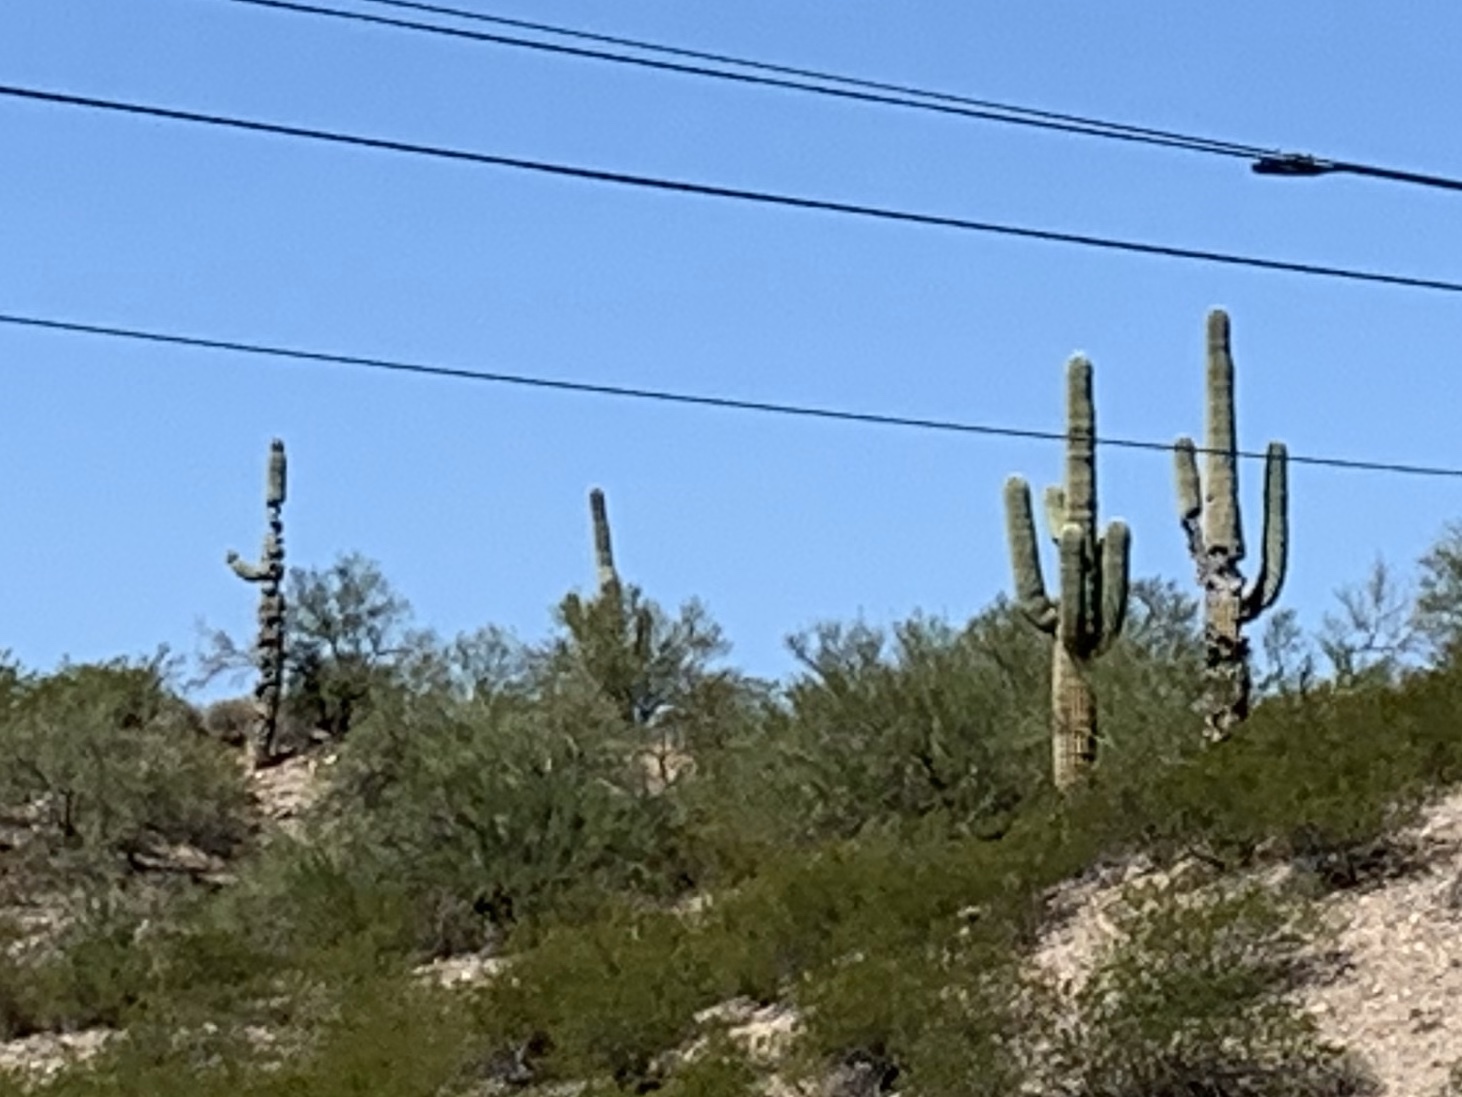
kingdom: Plantae
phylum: Tracheophyta
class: Magnoliopsida
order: Caryophyllales
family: Cactaceae
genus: Carnegiea
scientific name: Carnegiea gigantea
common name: Saguaro
